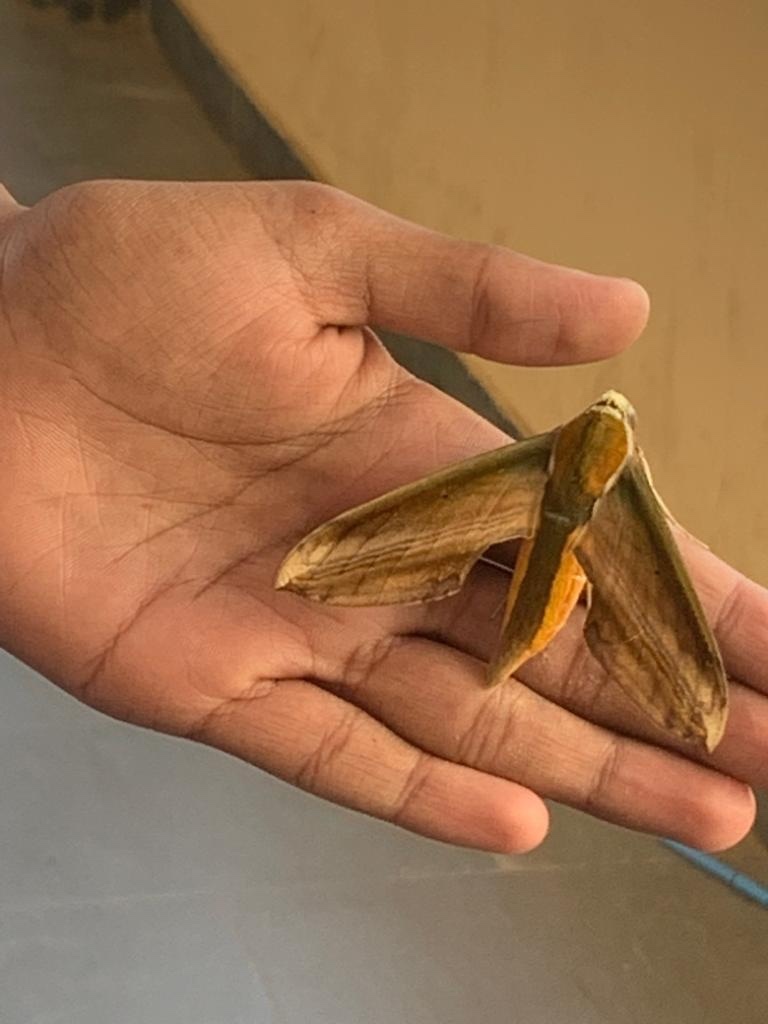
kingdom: Animalia
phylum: Arthropoda
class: Insecta
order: Lepidoptera
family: Sphingidae
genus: Theretra
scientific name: Theretra nessus
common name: Yam hawk moth
